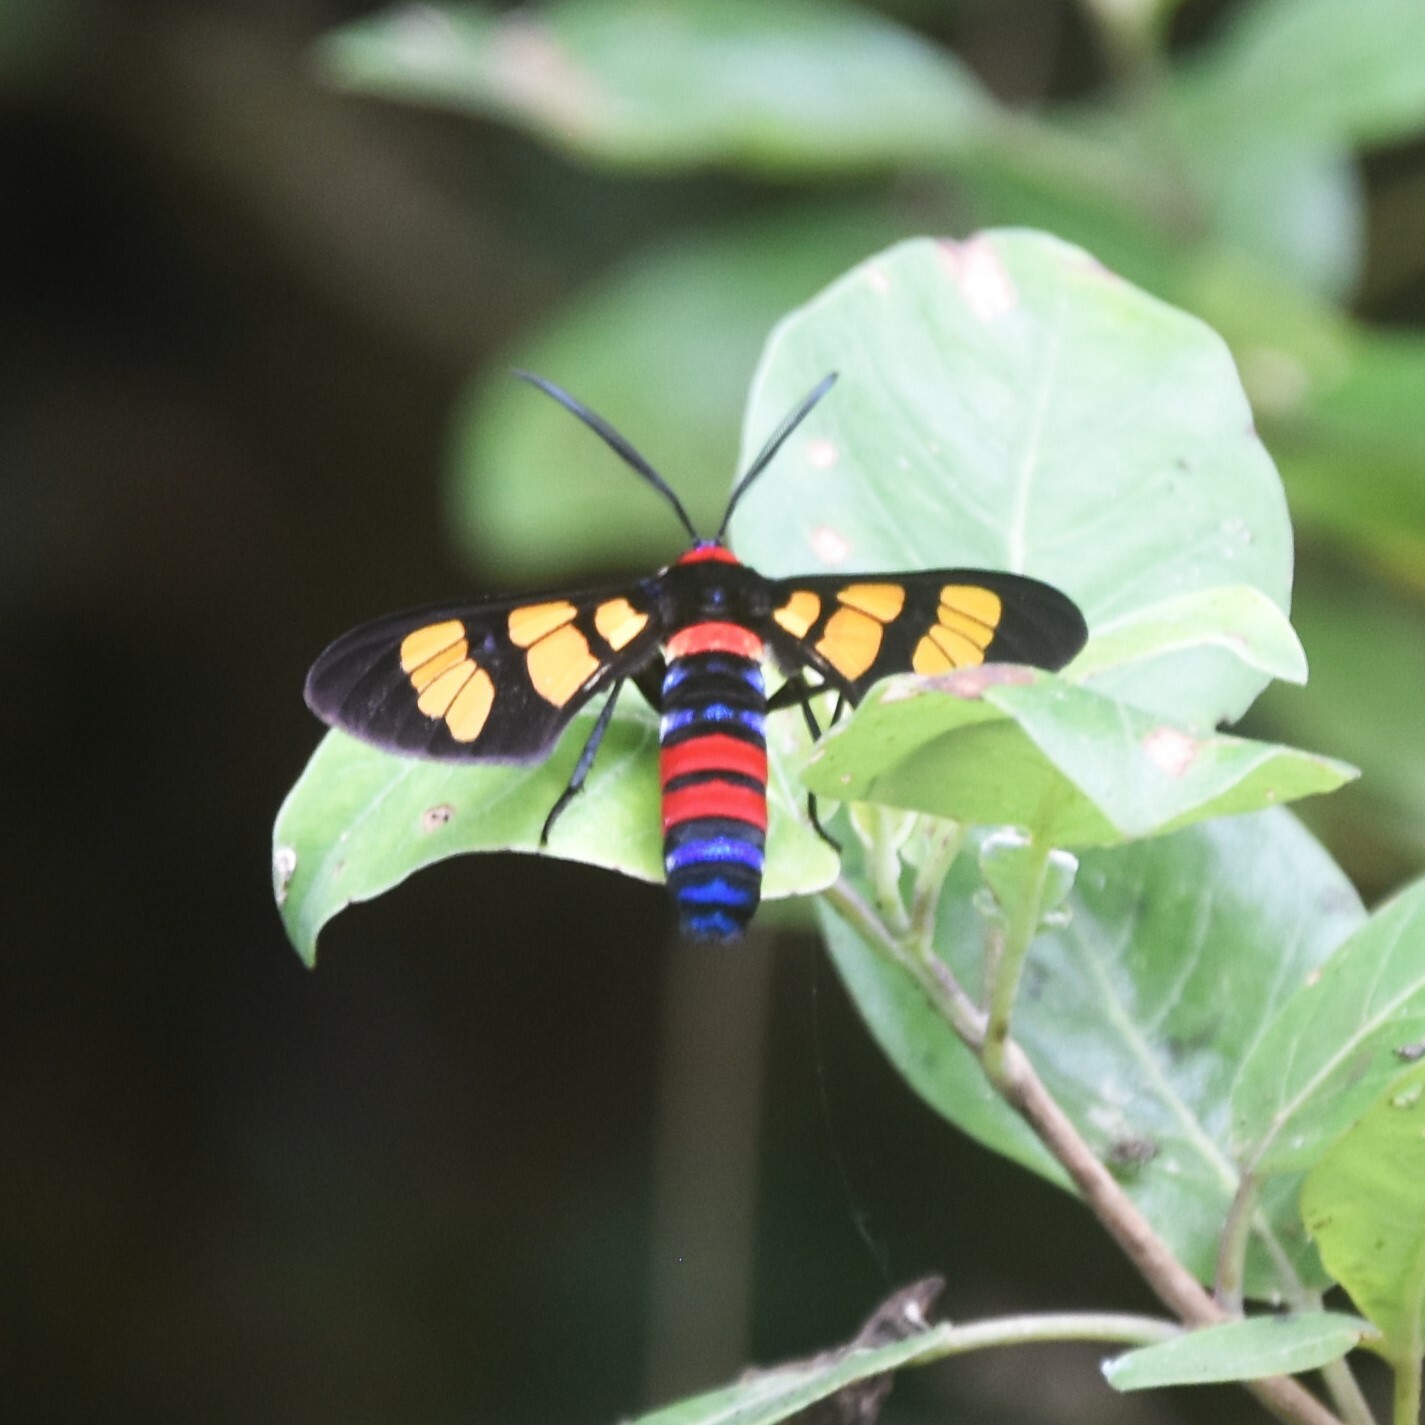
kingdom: Animalia
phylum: Arthropoda
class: Insecta
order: Lepidoptera
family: Erebidae
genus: Euchromia
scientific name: Euchromia polymena
